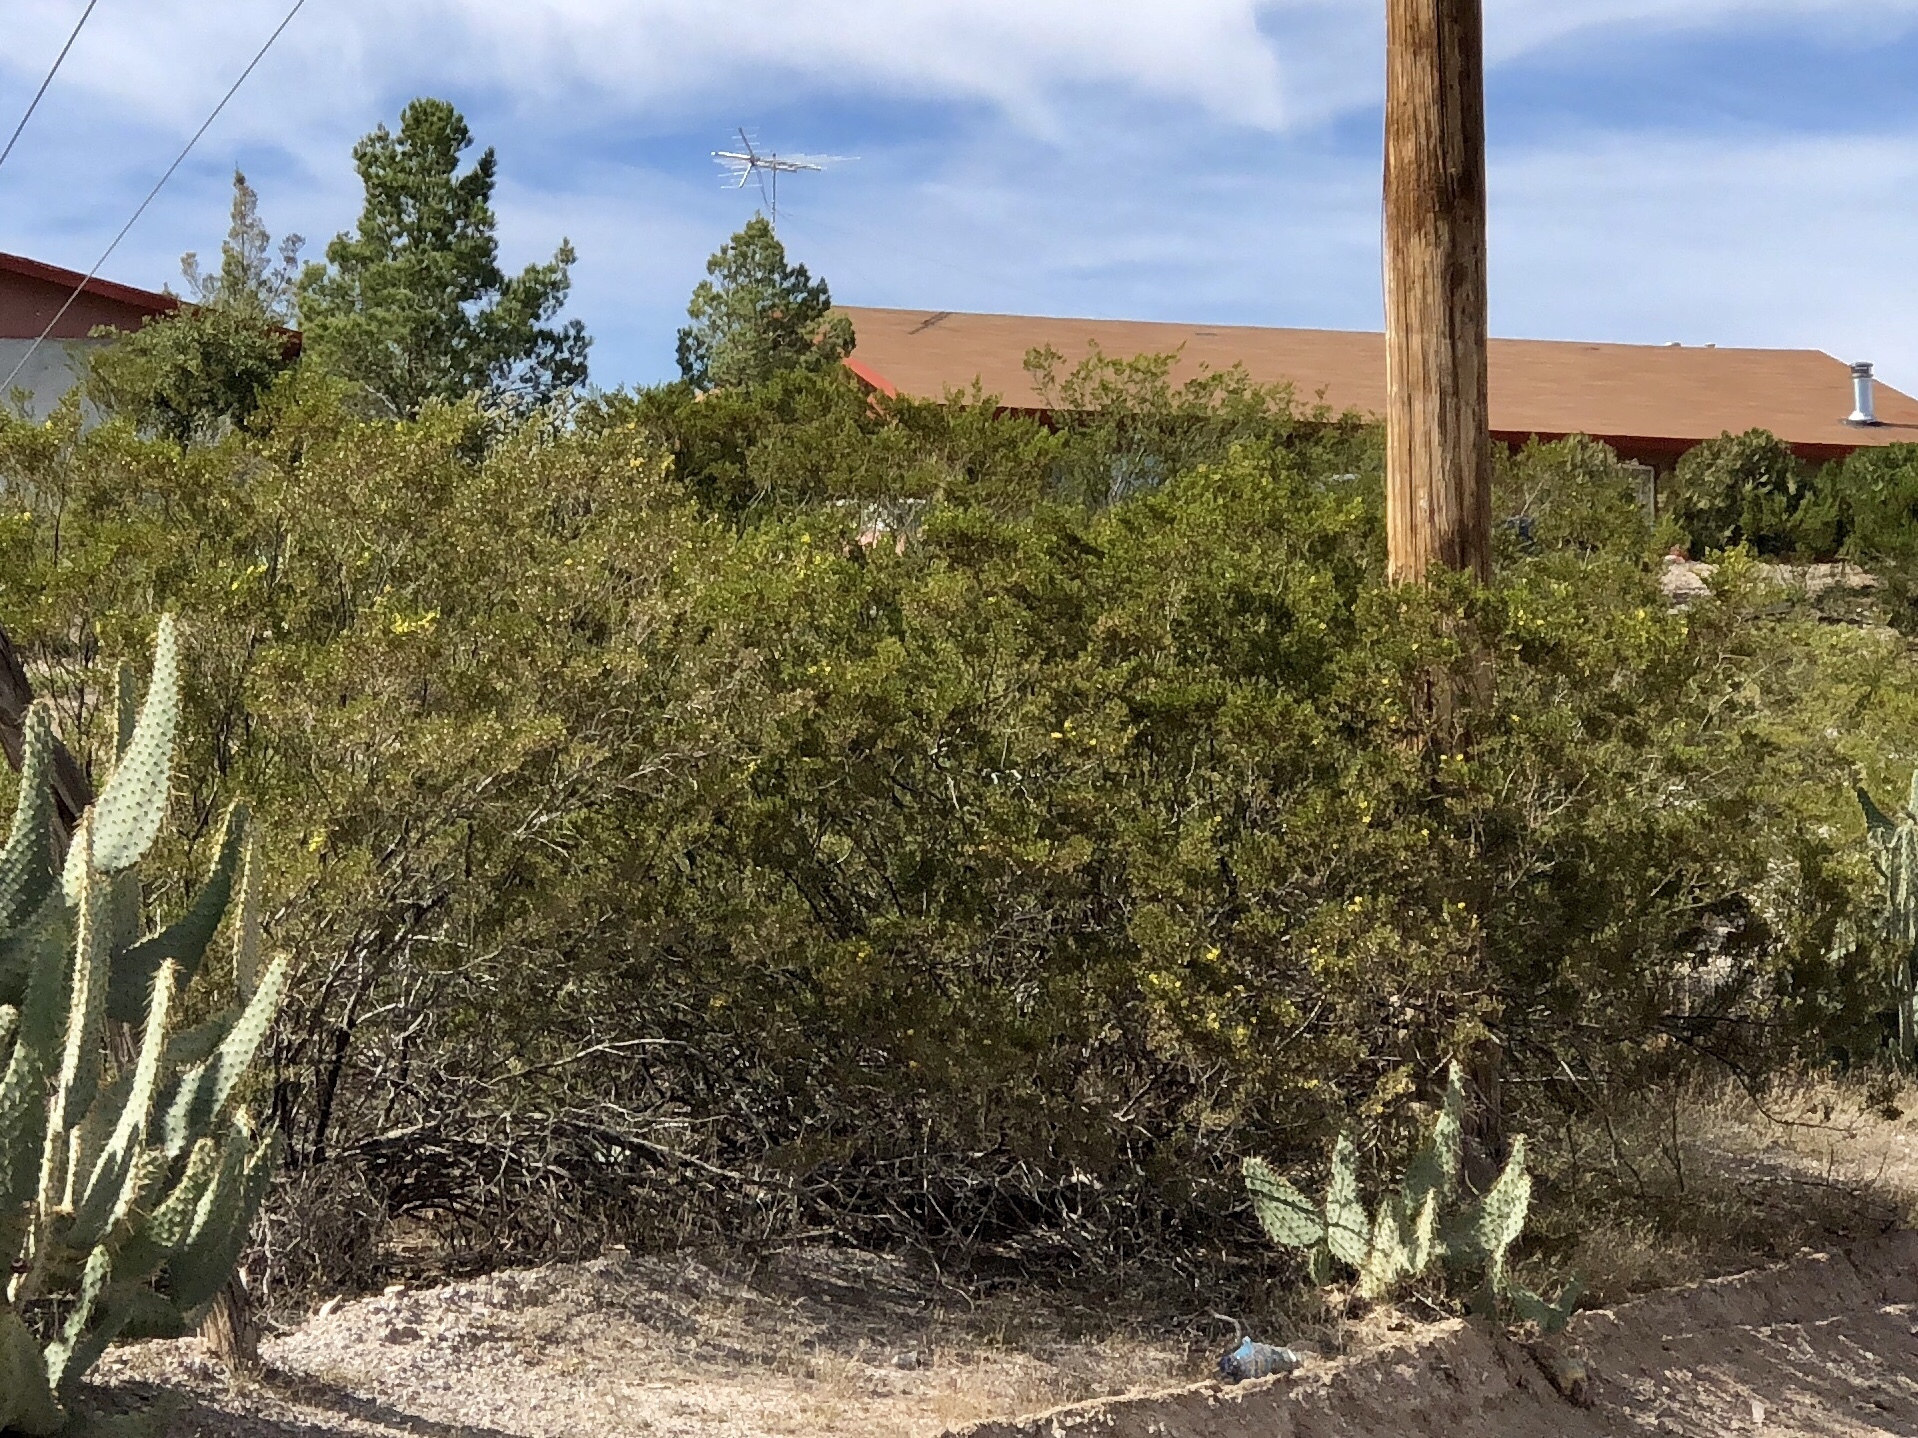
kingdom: Plantae
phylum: Tracheophyta
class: Magnoliopsida
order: Zygophyllales
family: Zygophyllaceae
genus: Larrea
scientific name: Larrea tridentata
